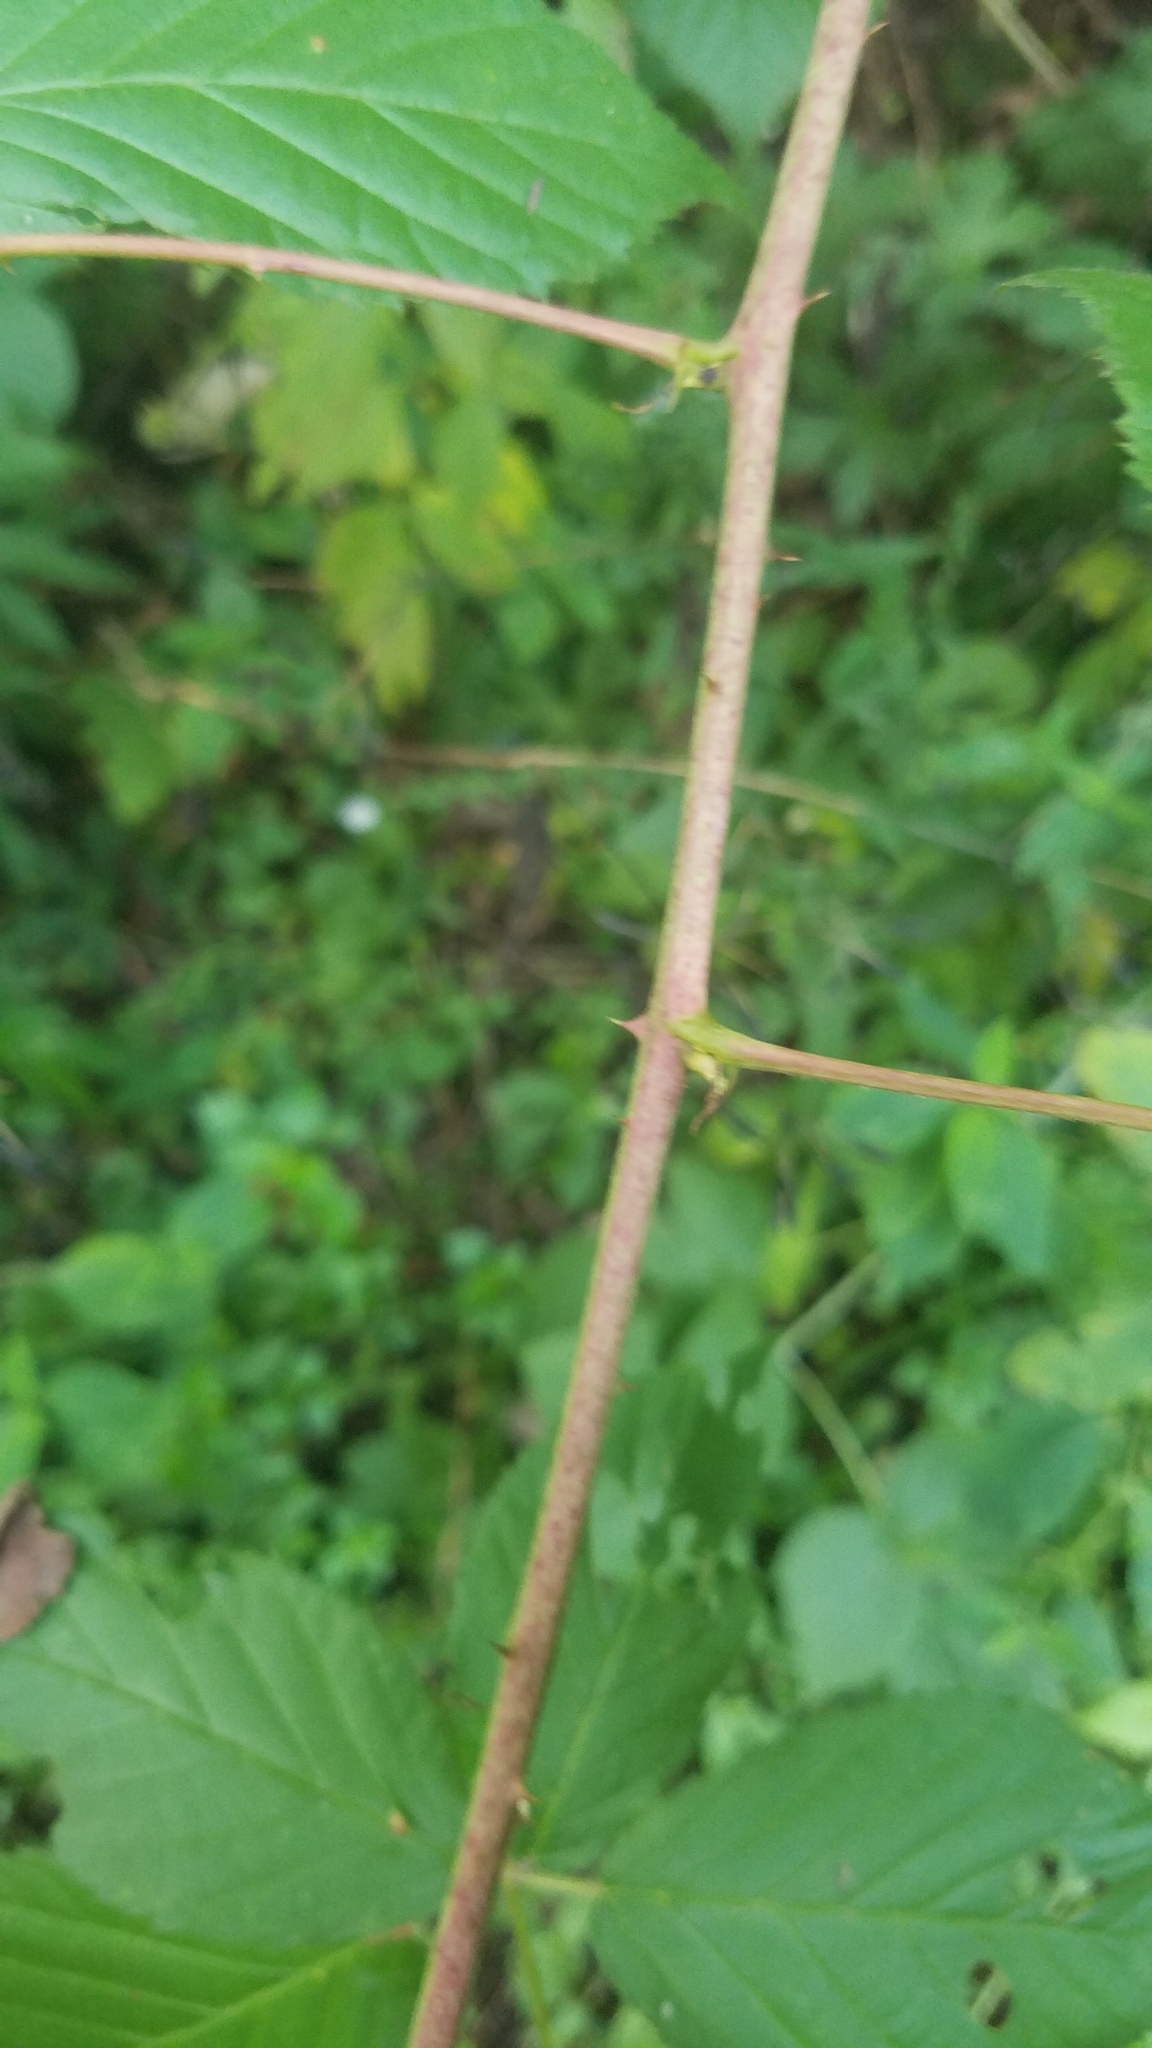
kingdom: Plantae
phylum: Tracheophyta
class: Magnoliopsida
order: Rosales
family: Rosaceae
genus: Rubus
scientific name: Rubus allegheniensis
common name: Allegheny blackberry
